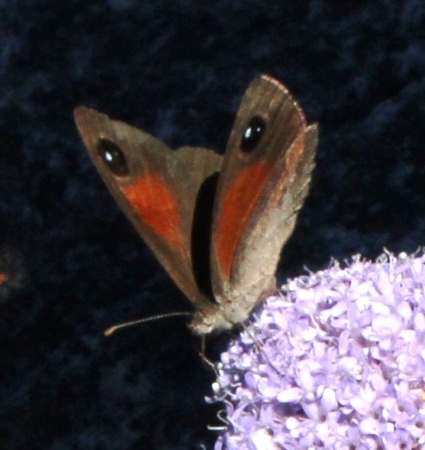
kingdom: Animalia
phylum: Arthropoda
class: Insecta
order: Lepidoptera
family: Nymphalidae
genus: Stygionympha
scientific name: Stygionympha vigilans
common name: Western hillside brown
